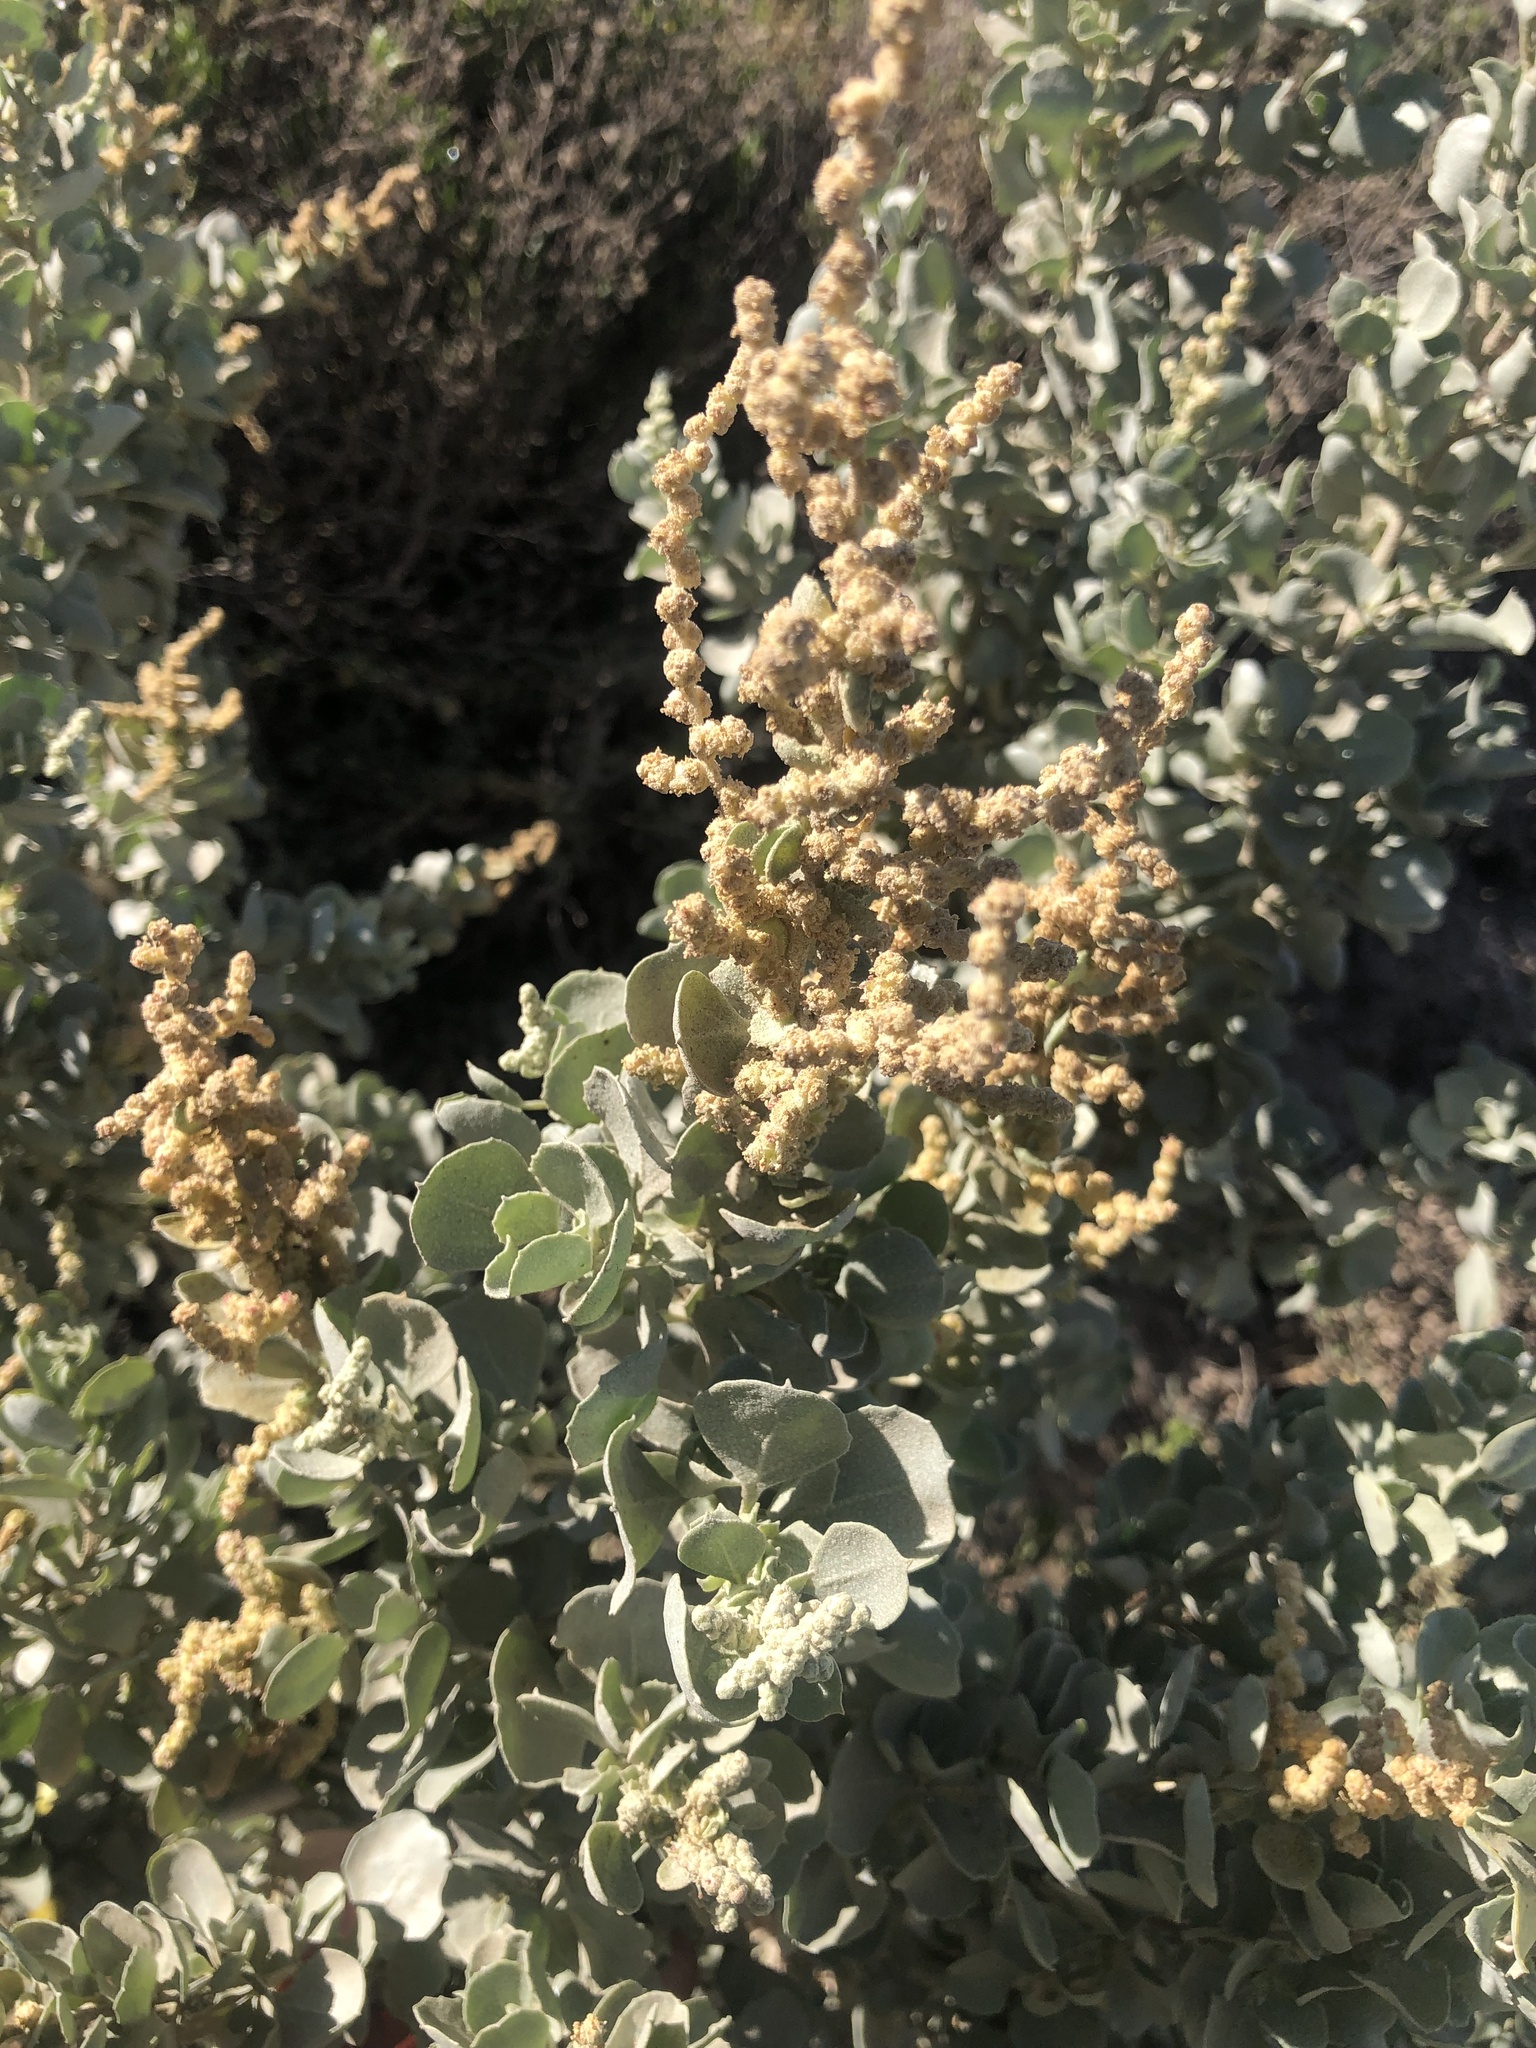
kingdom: Plantae
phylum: Tracheophyta
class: Magnoliopsida
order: Caryophyllales
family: Amaranthaceae
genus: Atriplex
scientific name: Atriplex nummularia
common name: Bluegreen saltbush
